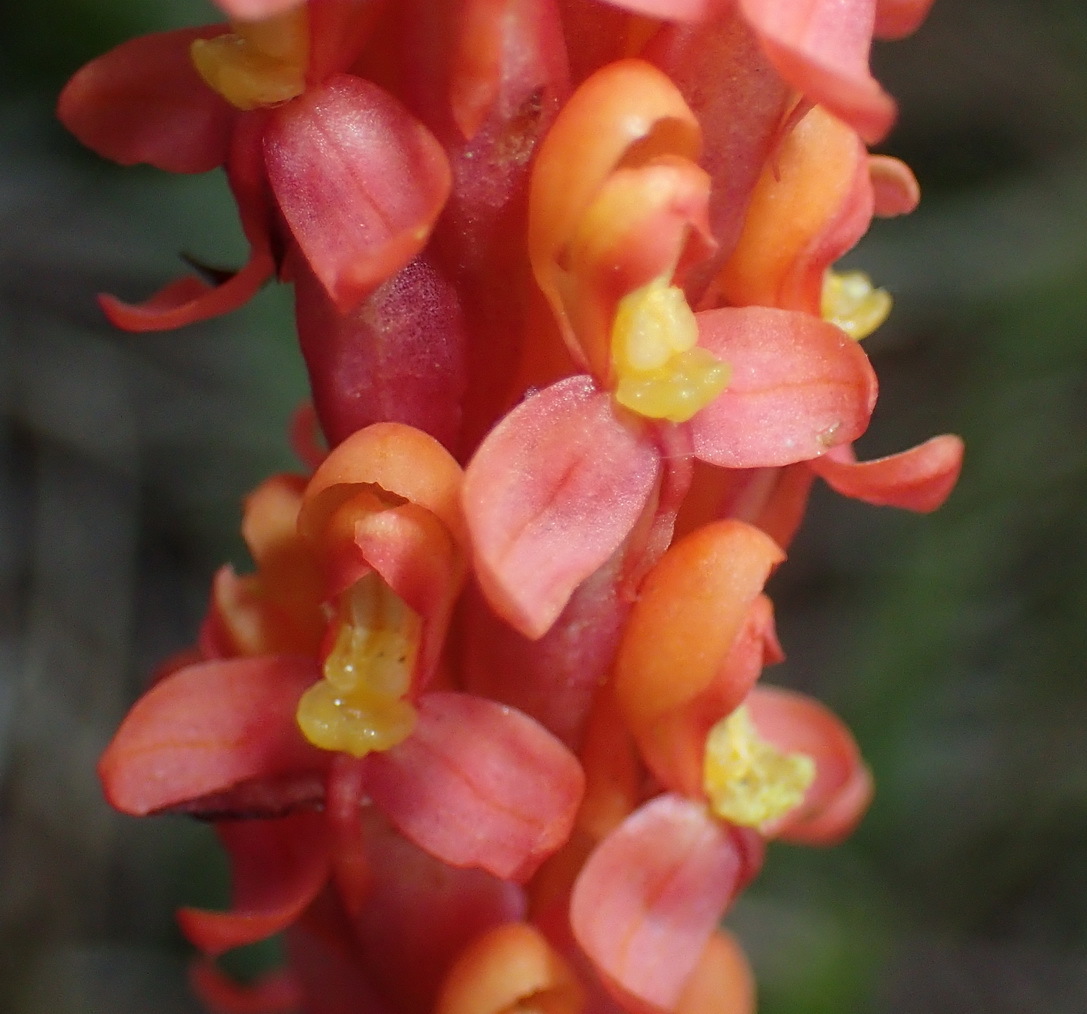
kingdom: Plantae
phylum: Tracheophyta
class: Liliopsida
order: Asparagales
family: Orchidaceae
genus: Disa
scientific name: Disa chrysostachya
